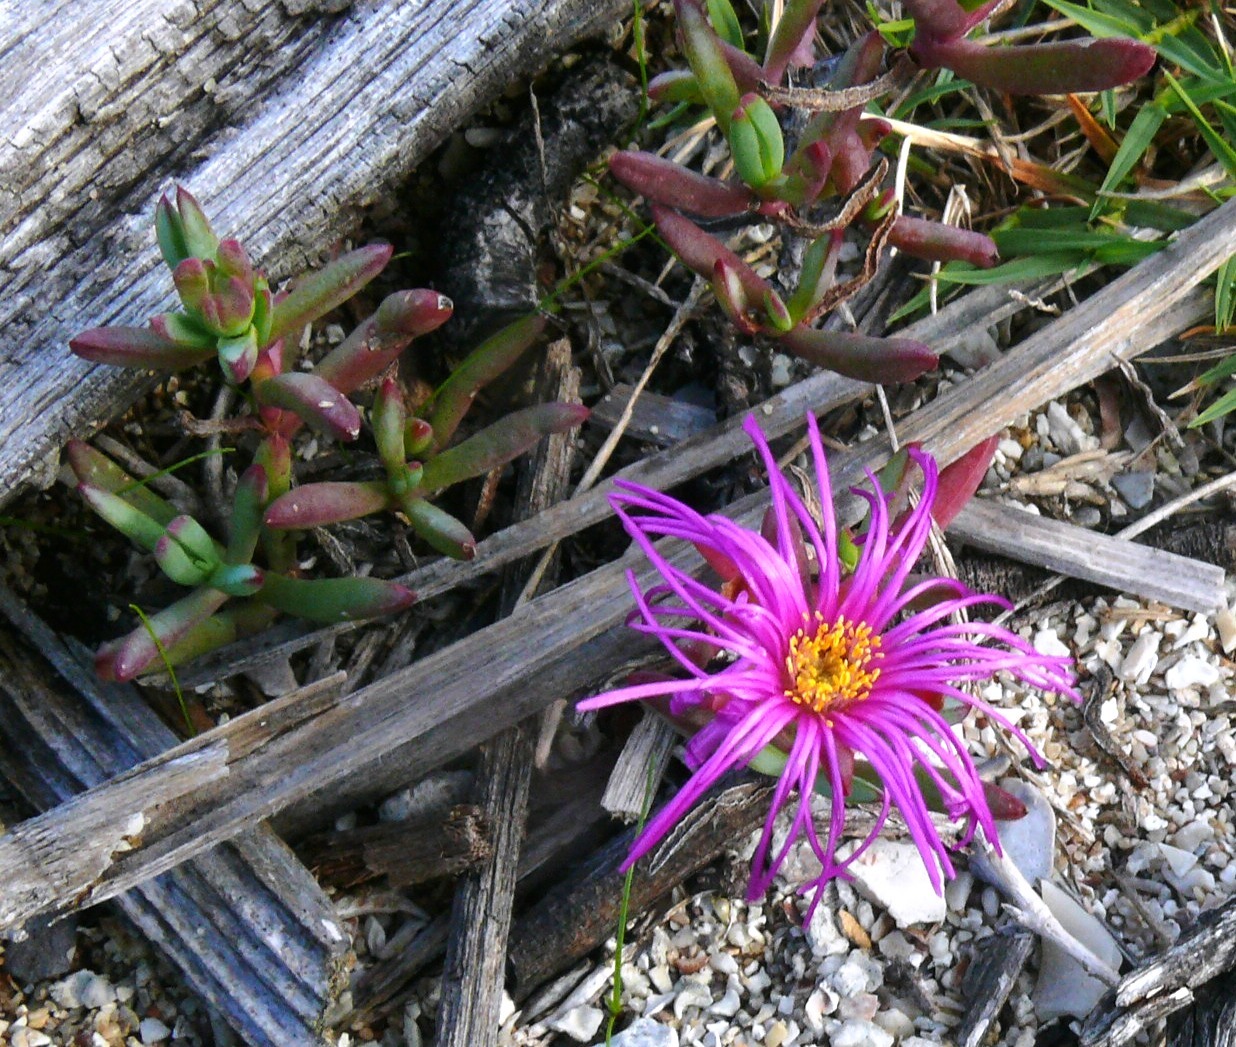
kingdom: Plantae
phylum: Tracheophyta
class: Magnoliopsida
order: Caryophyllales
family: Aizoaceae
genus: Lampranthus
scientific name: Lampranthus macrosepalus
